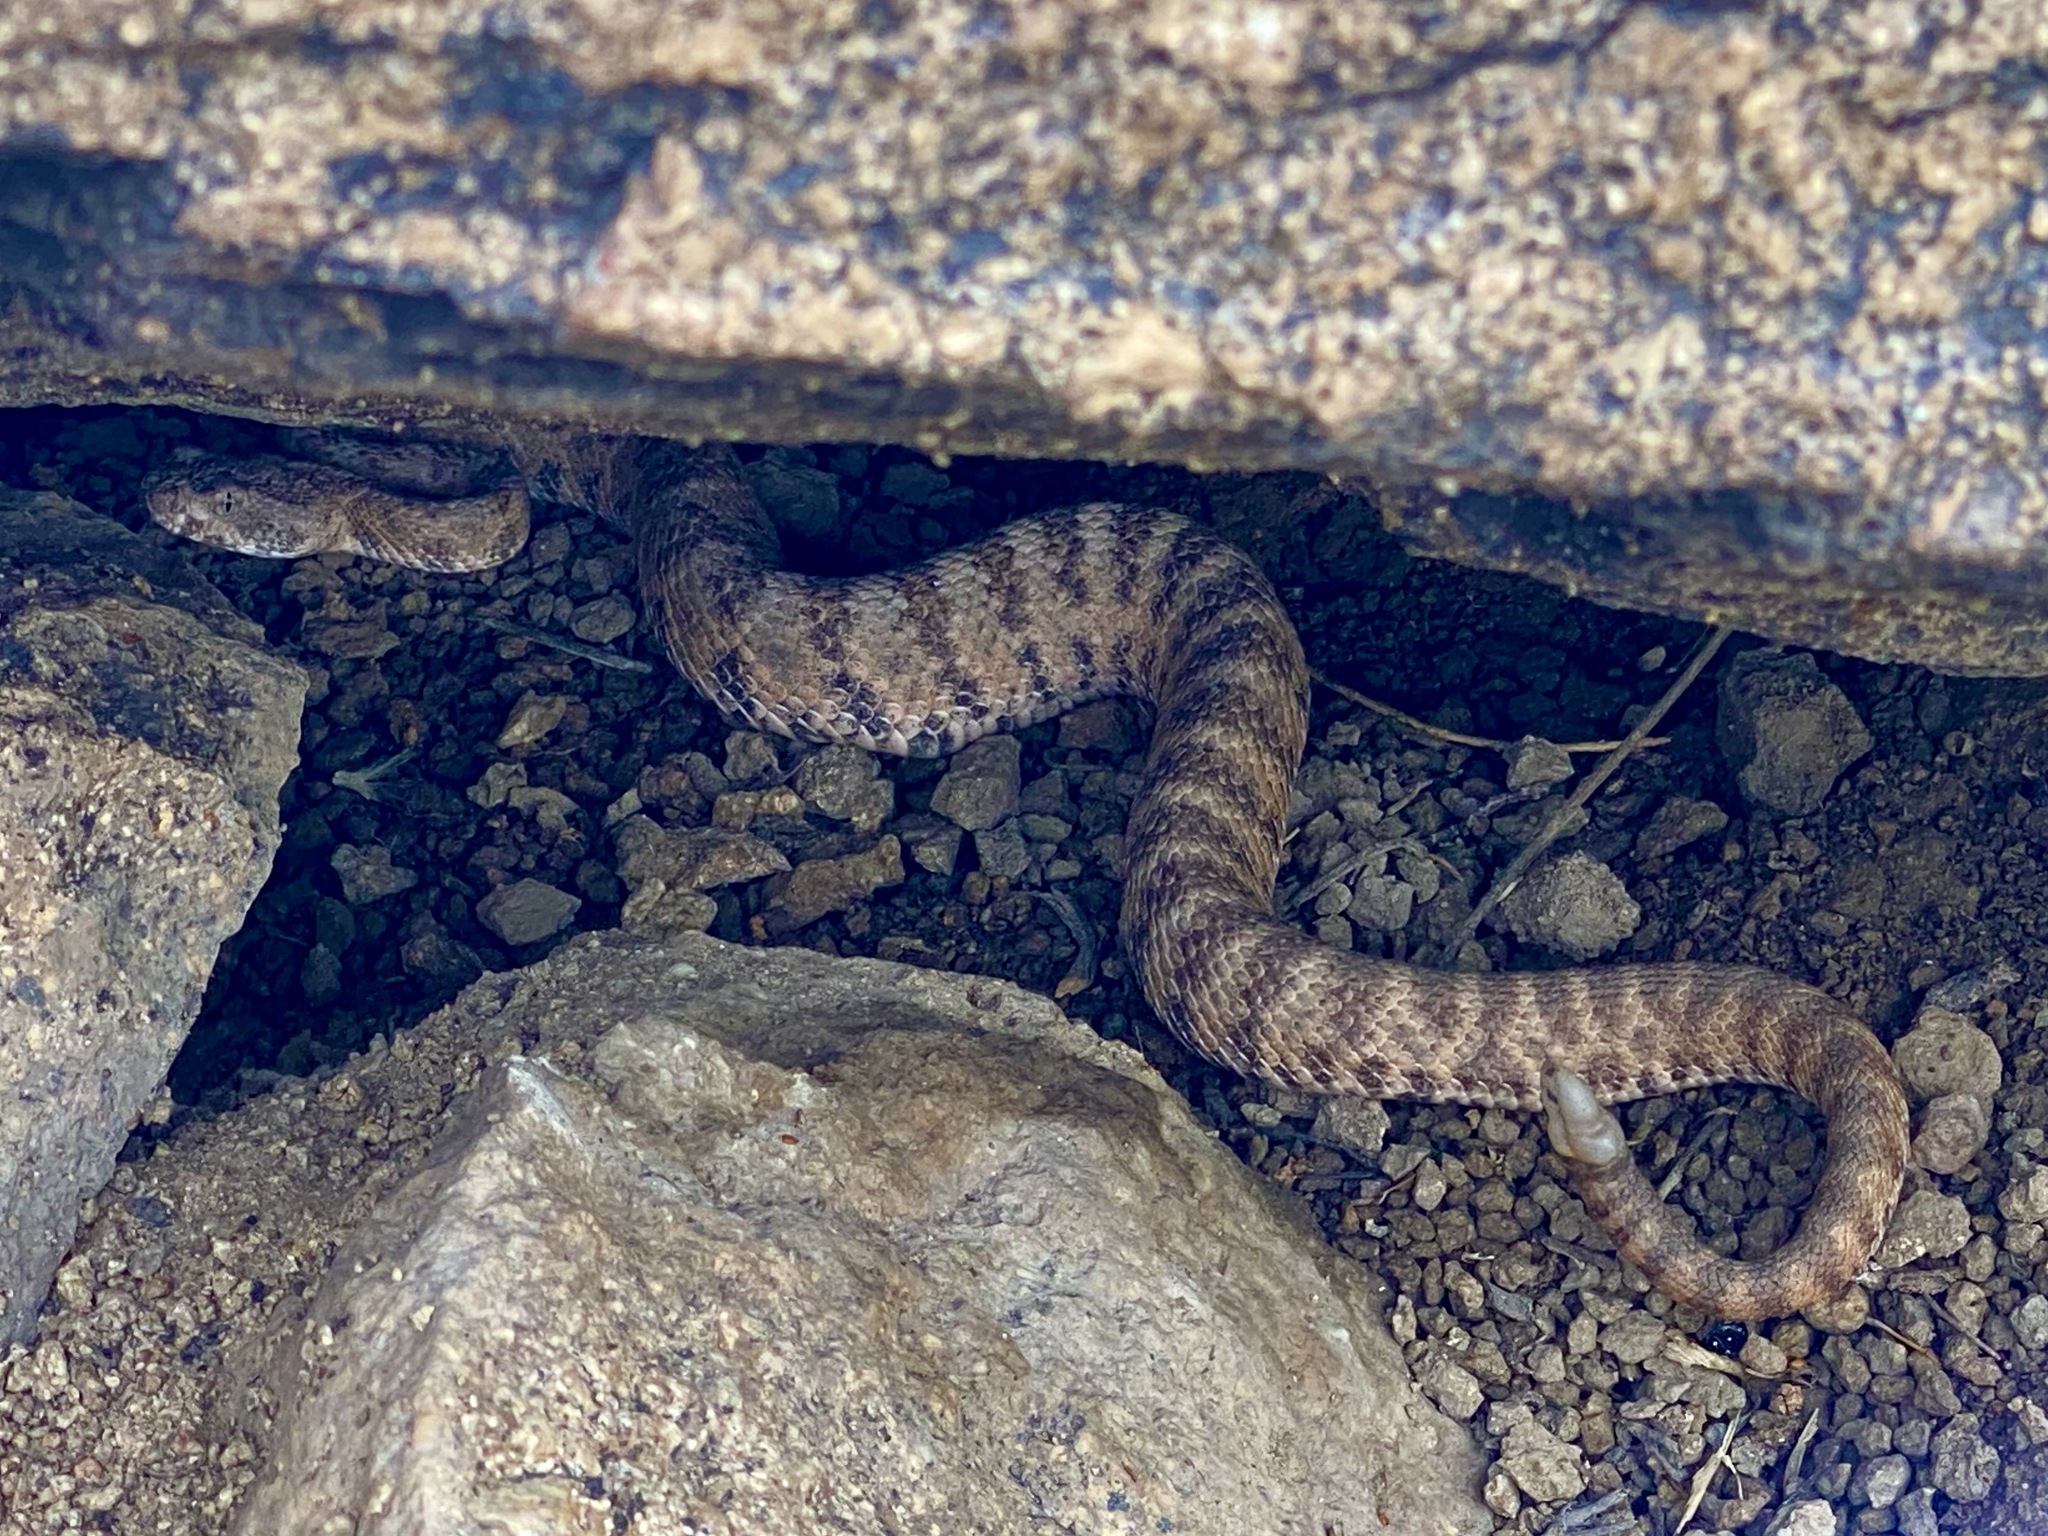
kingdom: Animalia
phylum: Chordata
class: Squamata
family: Viperidae
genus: Crotalus
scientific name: Crotalus tigris
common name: Tiger rattlesnake
